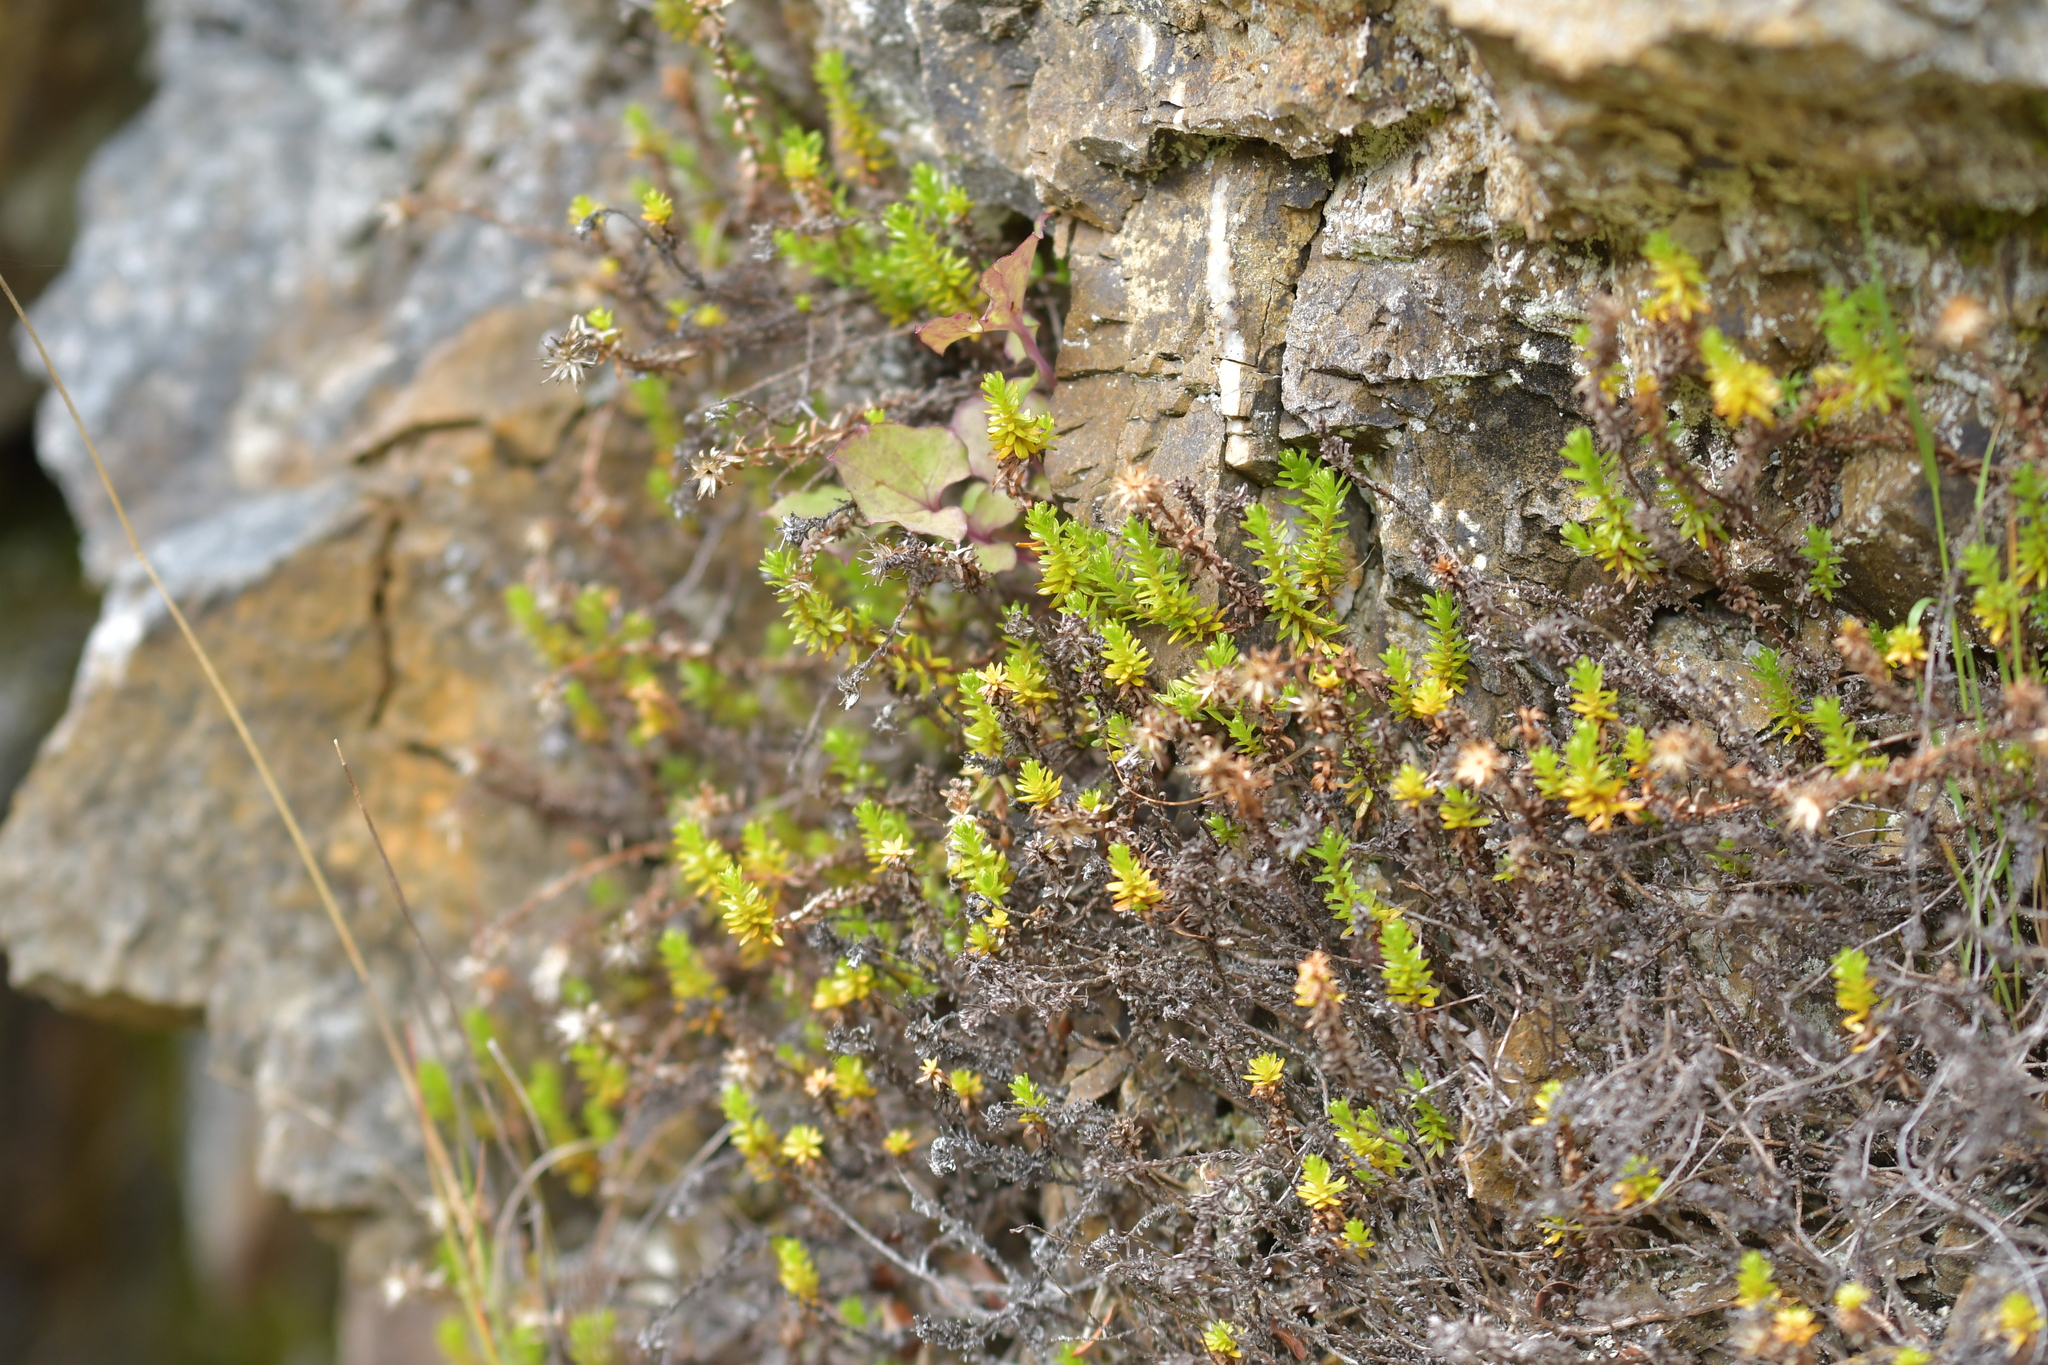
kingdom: Plantae
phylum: Tracheophyta
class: Magnoliopsida
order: Asterales
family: Asteraceae
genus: Raoulia
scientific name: Raoulia glabra
